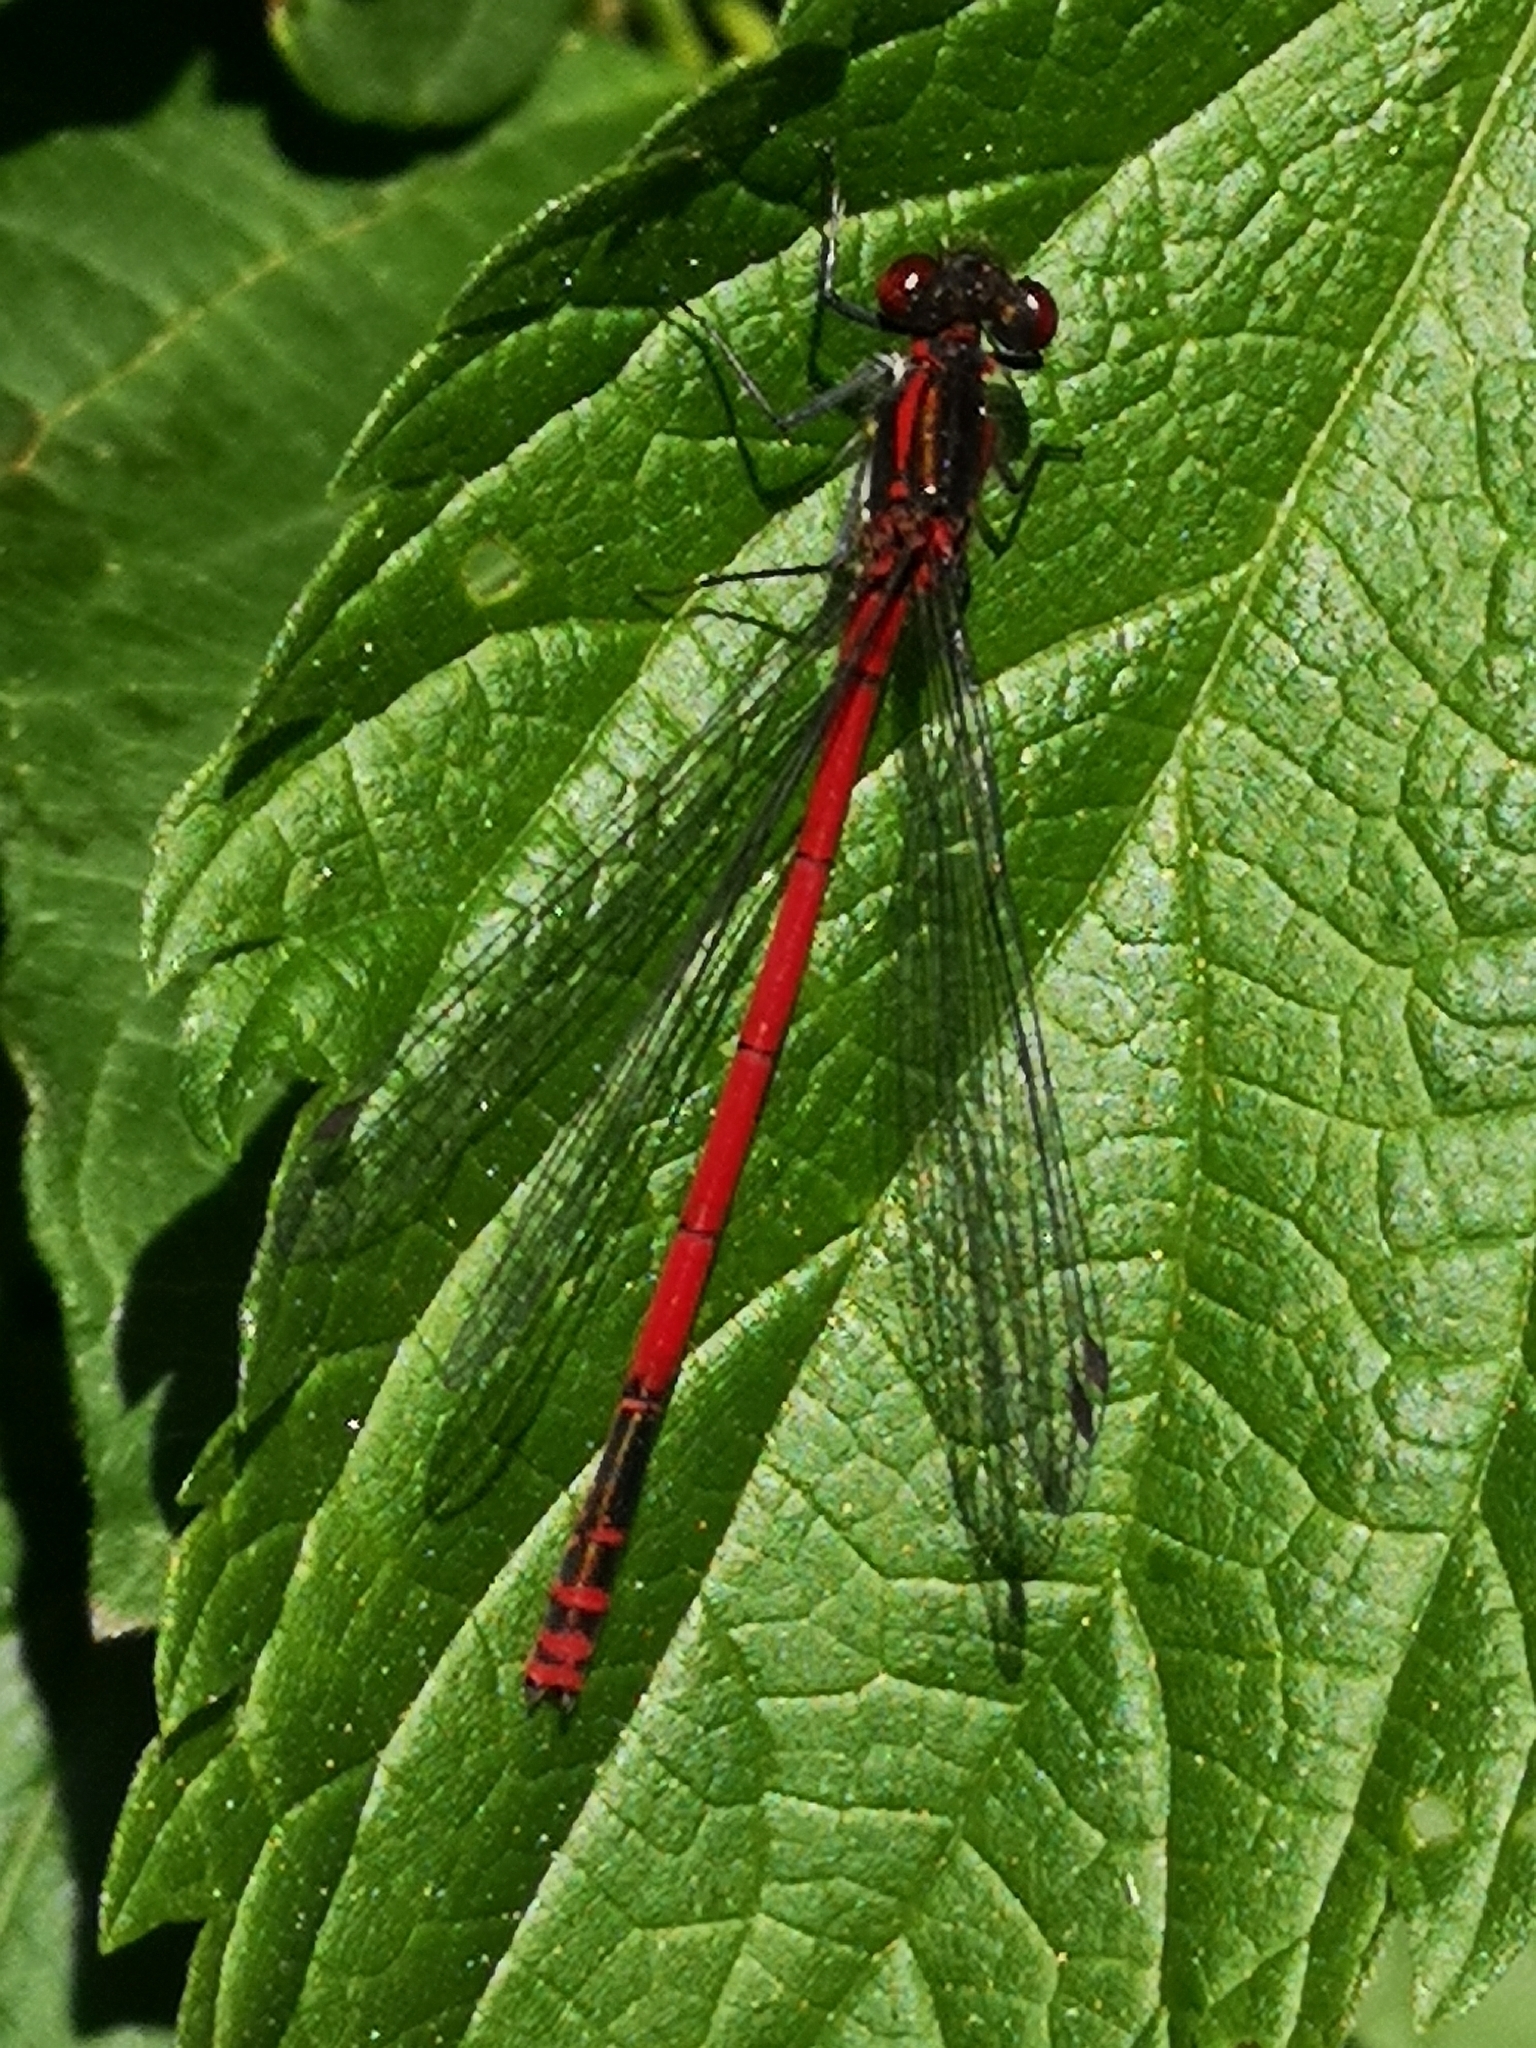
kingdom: Animalia
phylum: Arthropoda
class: Insecta
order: Odonata
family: Coenagrionidae
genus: Pyrrhosoma
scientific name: Pyrrhosoma nymphula
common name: Large red damsel
